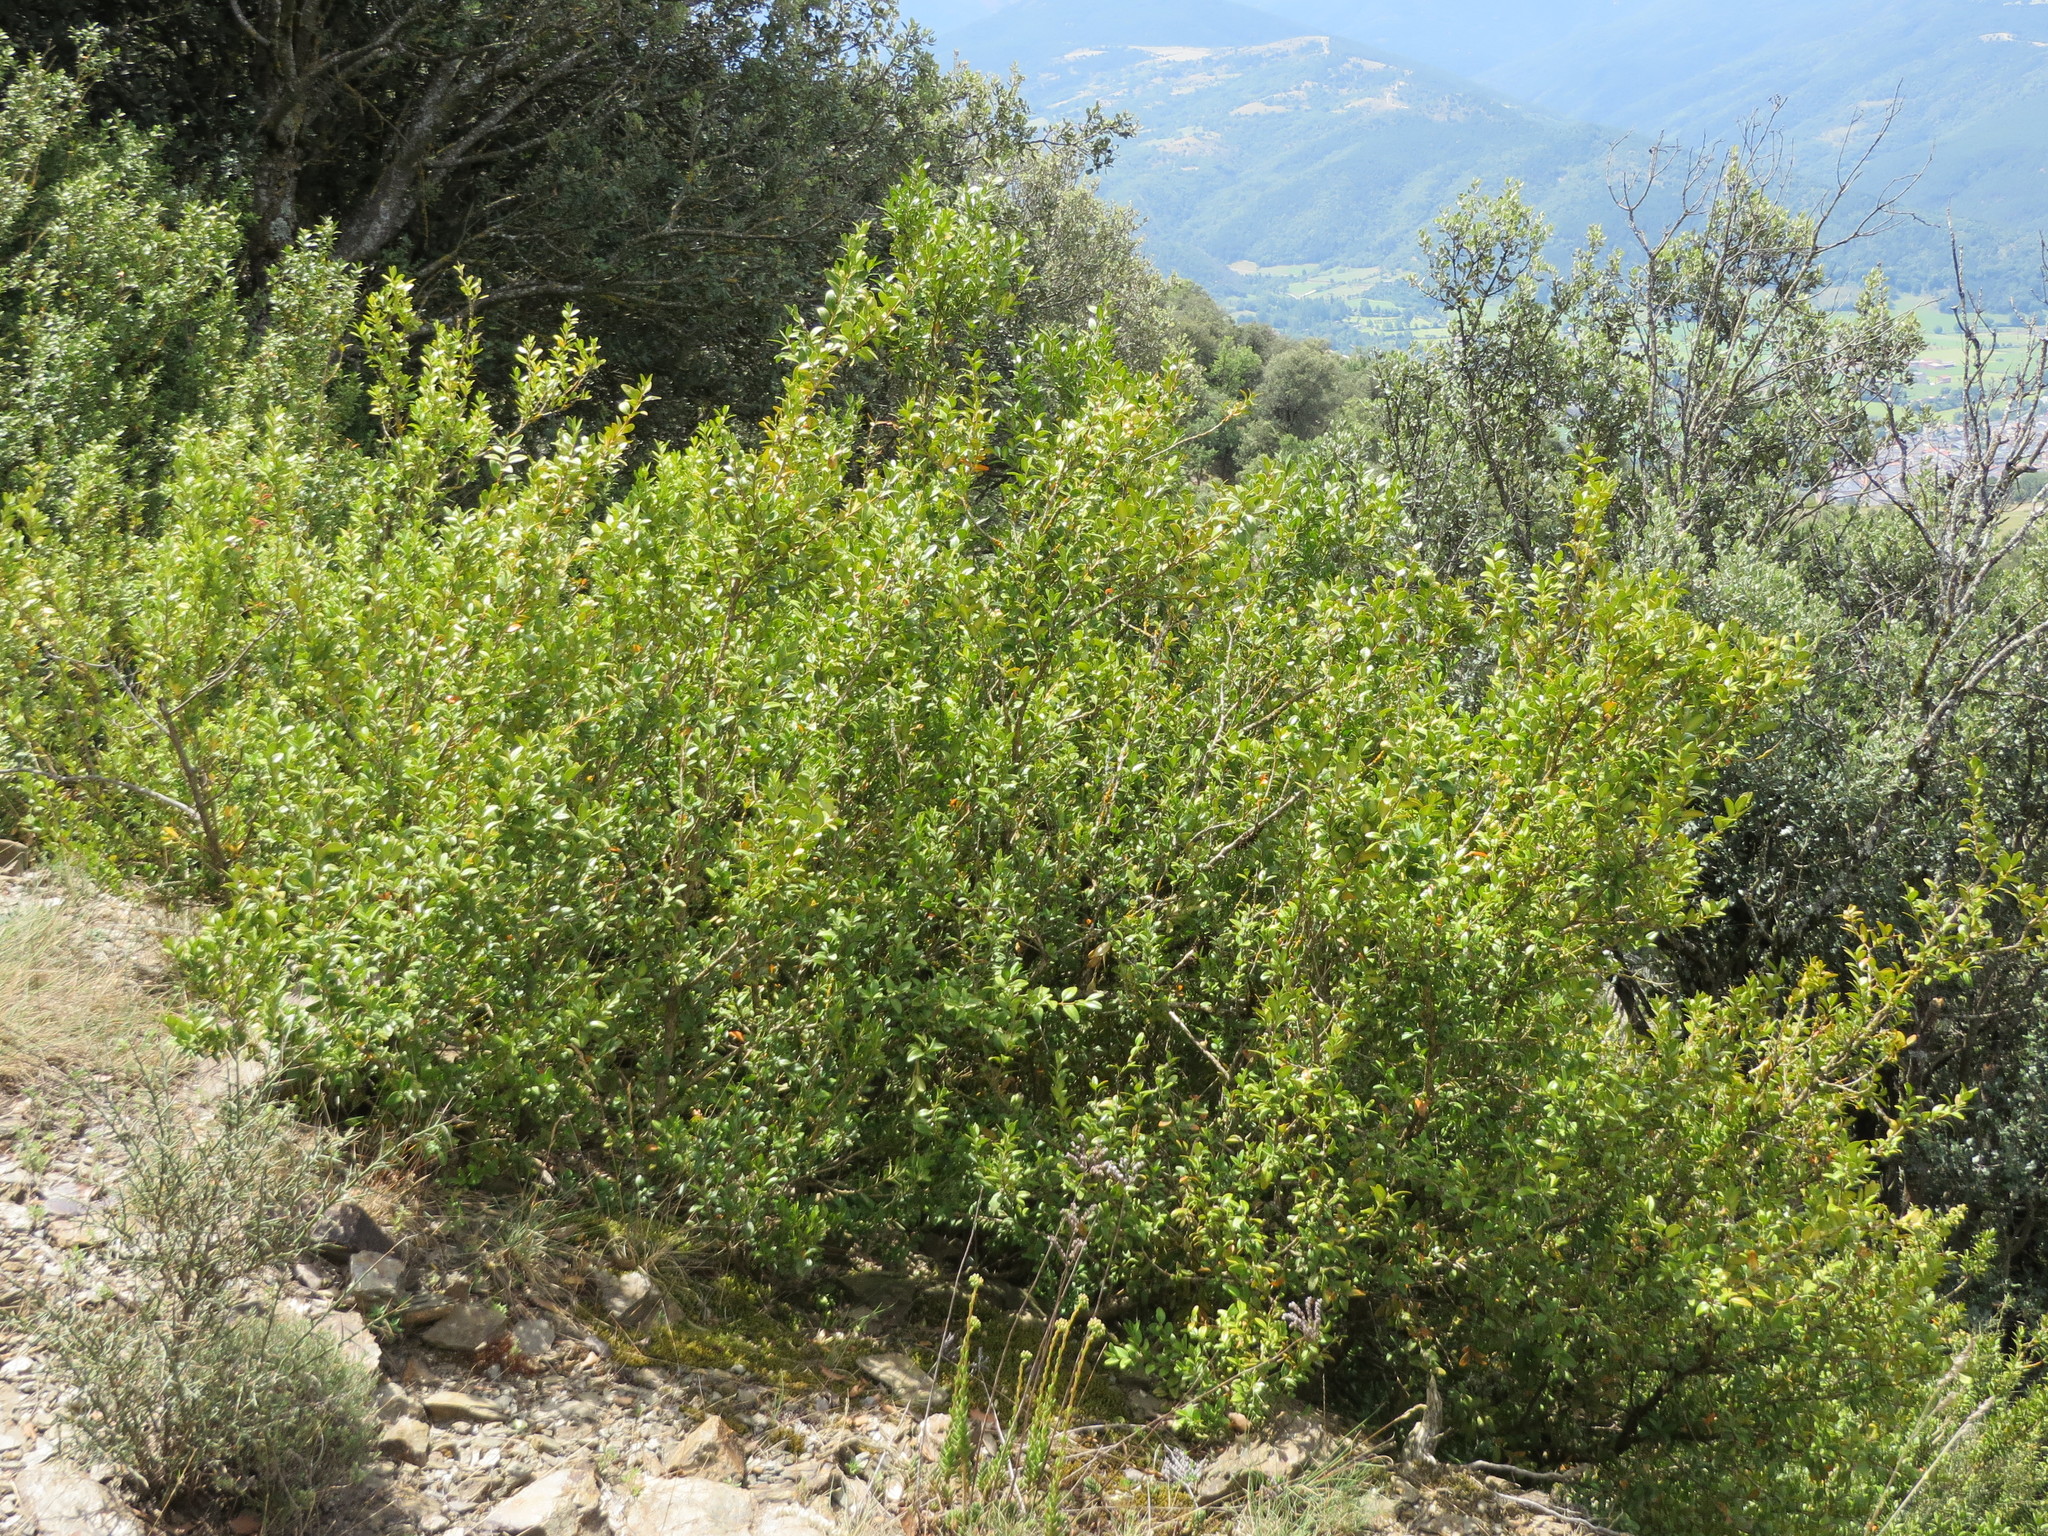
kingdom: Plantae
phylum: Tracheophyta
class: Magnoliopsida
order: Buxales
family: Buxaceae
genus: Buxus
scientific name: Buxus sempervirens
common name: Box
